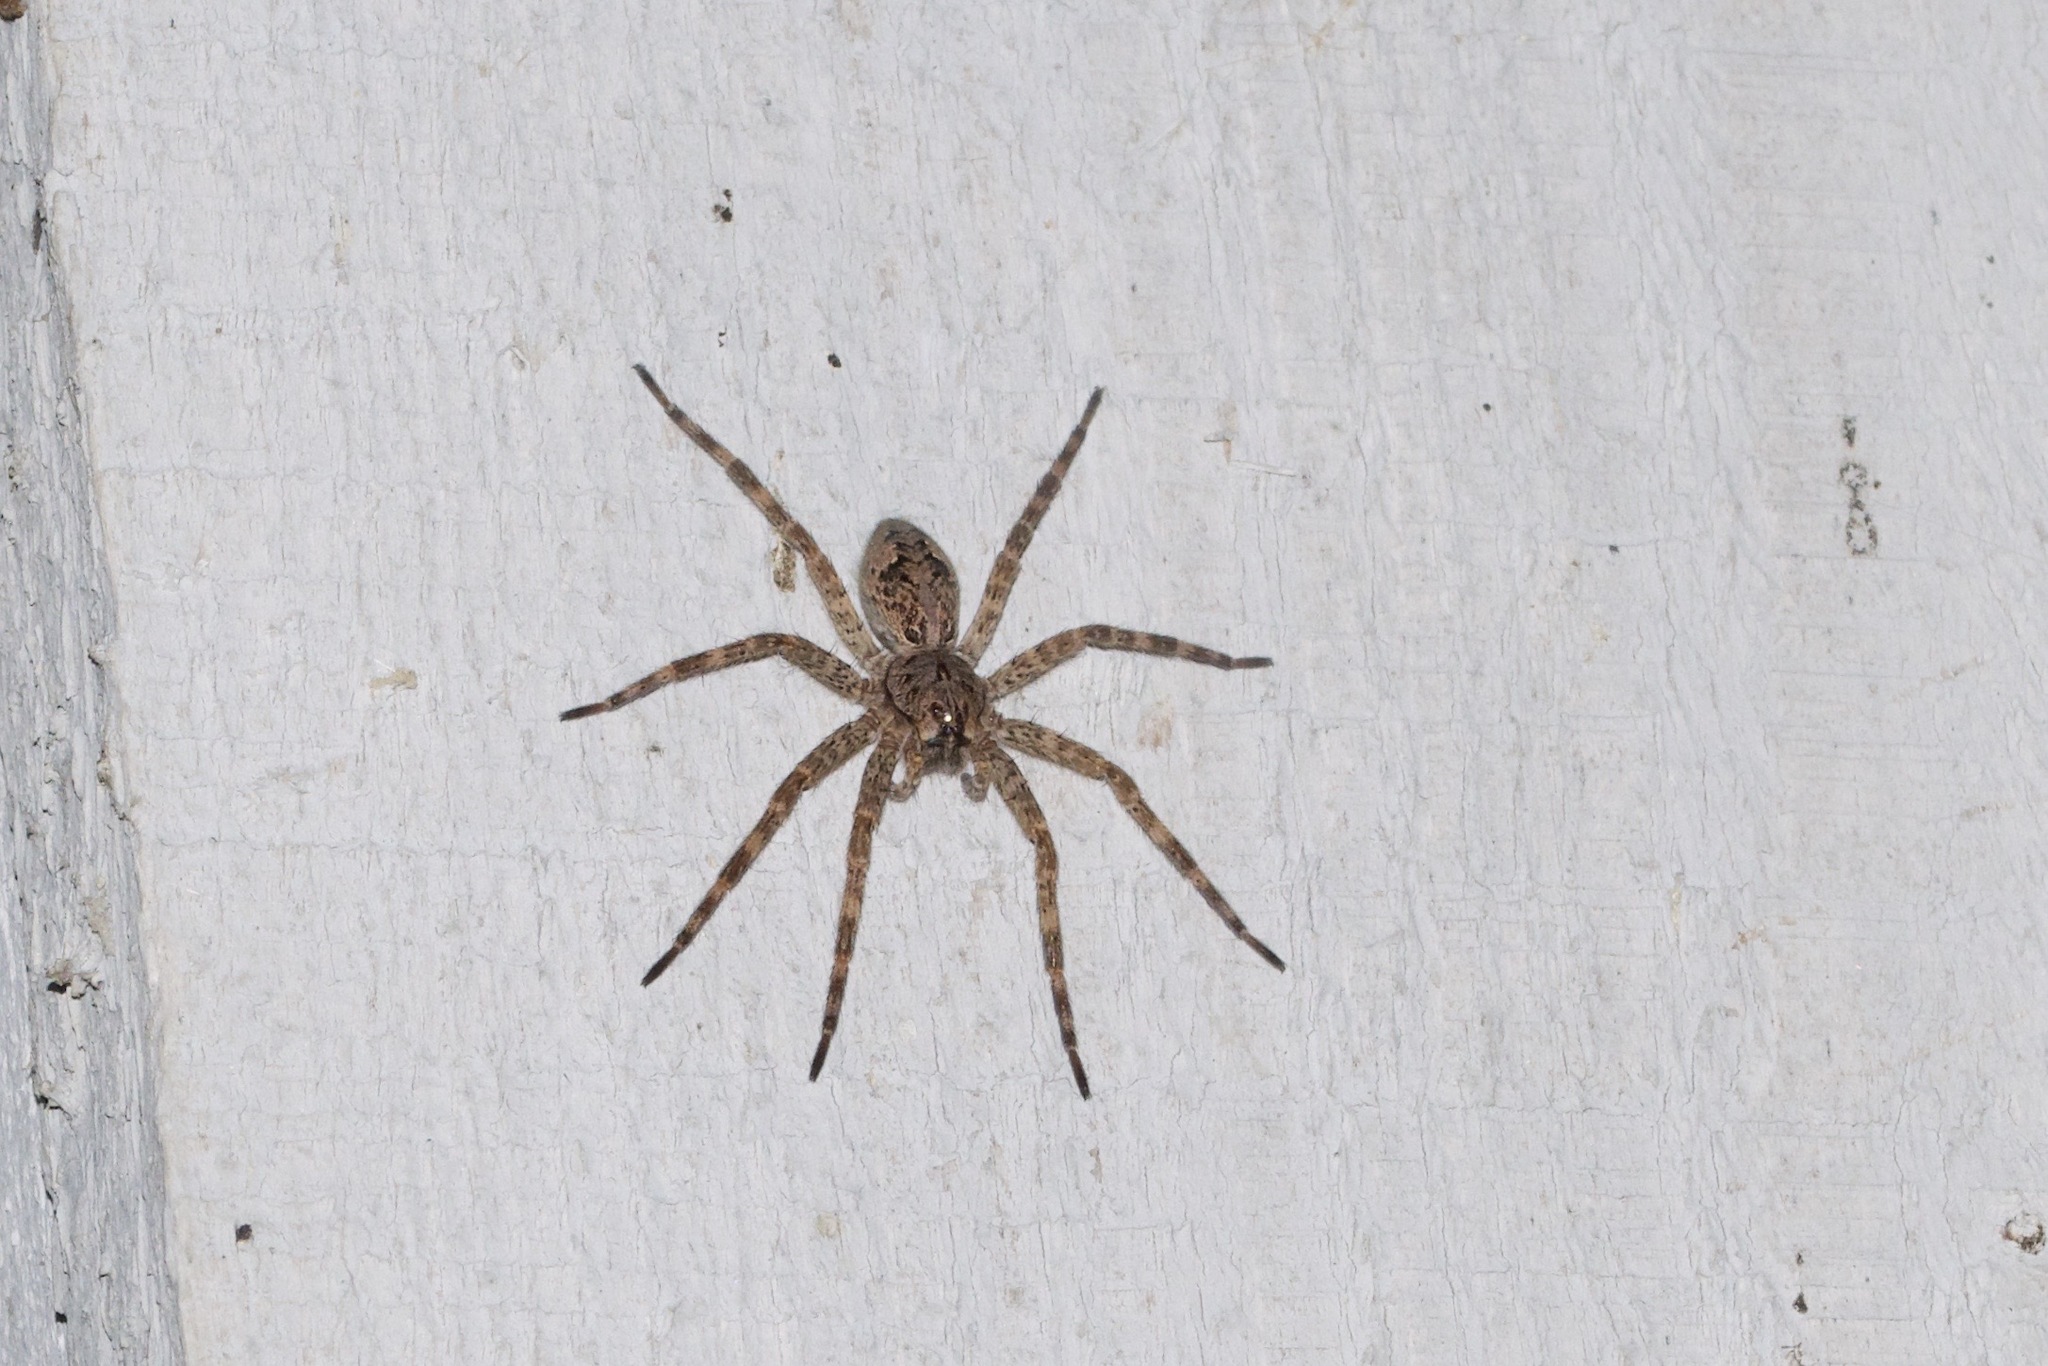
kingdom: Animalia
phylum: Arthropoda
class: Arachnida
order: Araneae
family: Pisauridae
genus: Dolomedes
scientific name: Dolomedes tenebrosus
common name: Dark fishing spider
